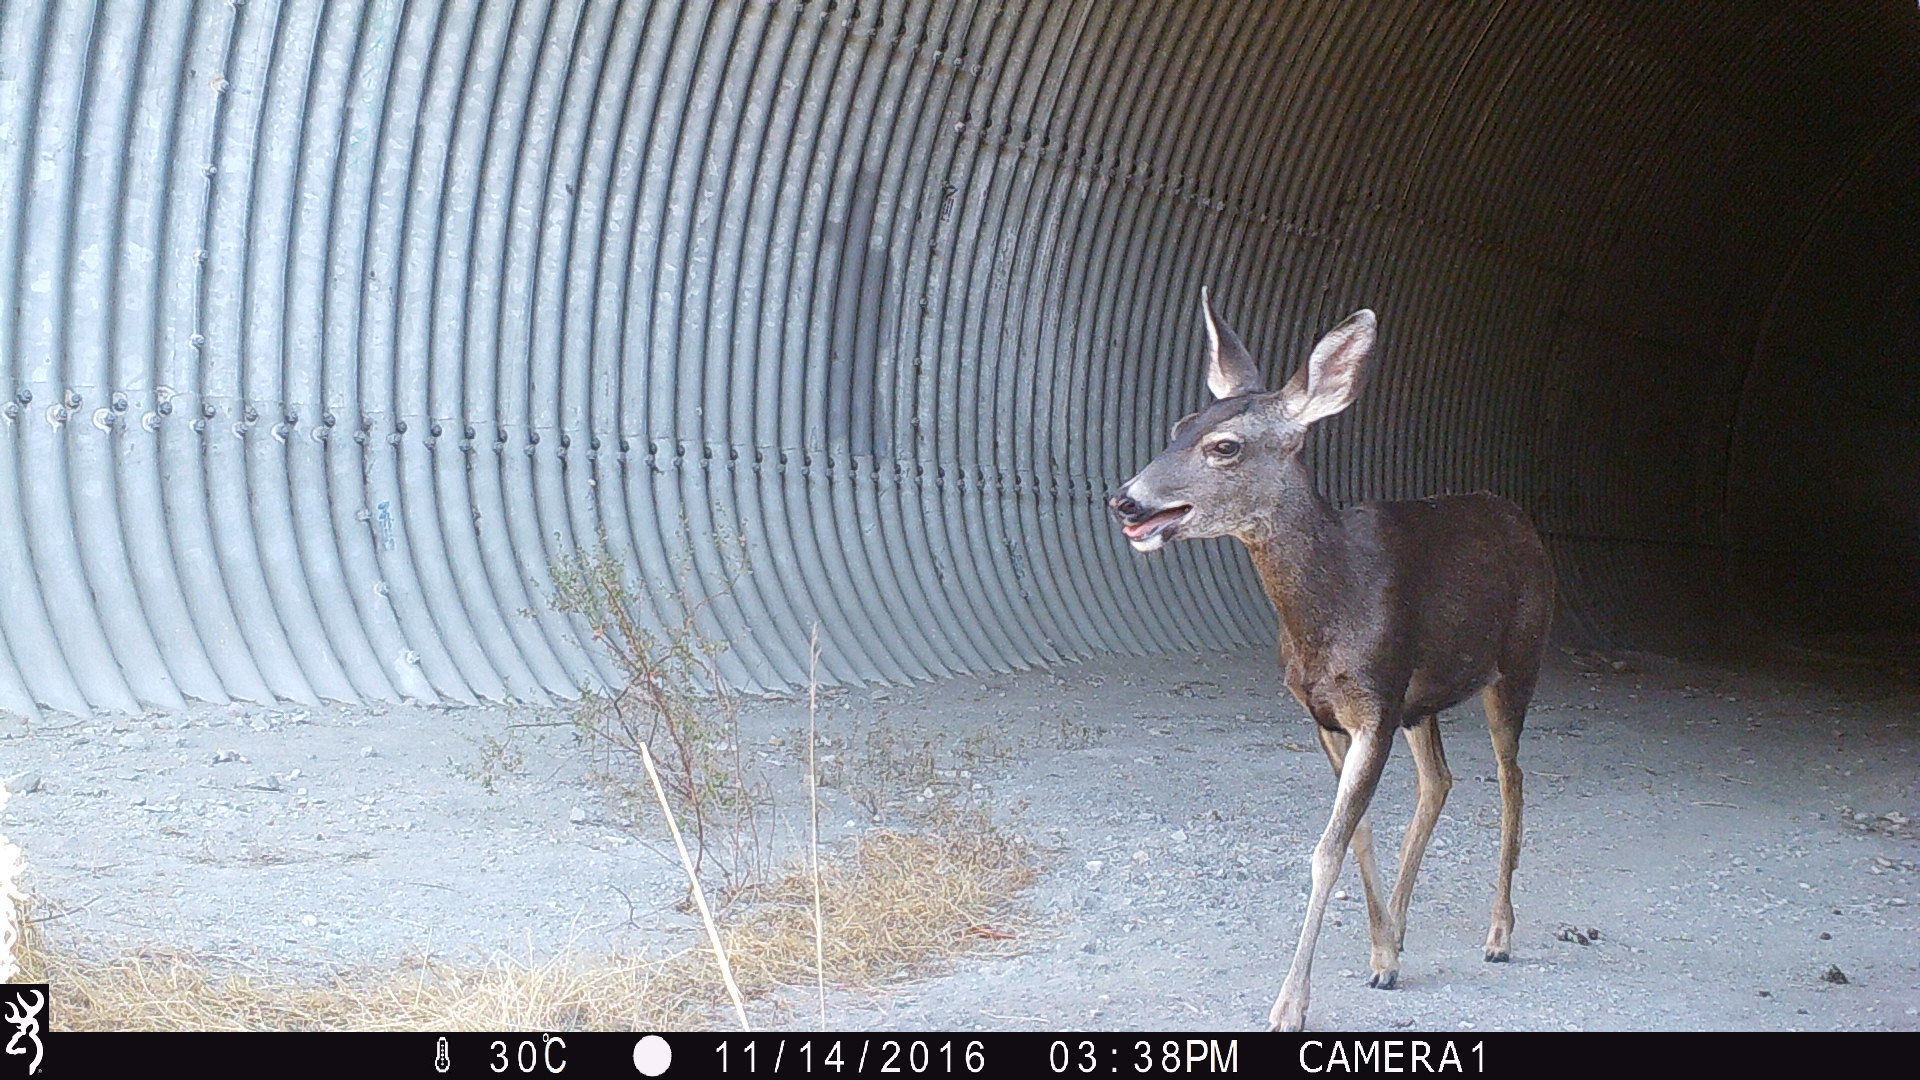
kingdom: Animalia
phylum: Chordata
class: Mammalia
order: Artiodactyla
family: Cervidae
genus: Odocoileus
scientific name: Odocoileus hemionus
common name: Mule deer
